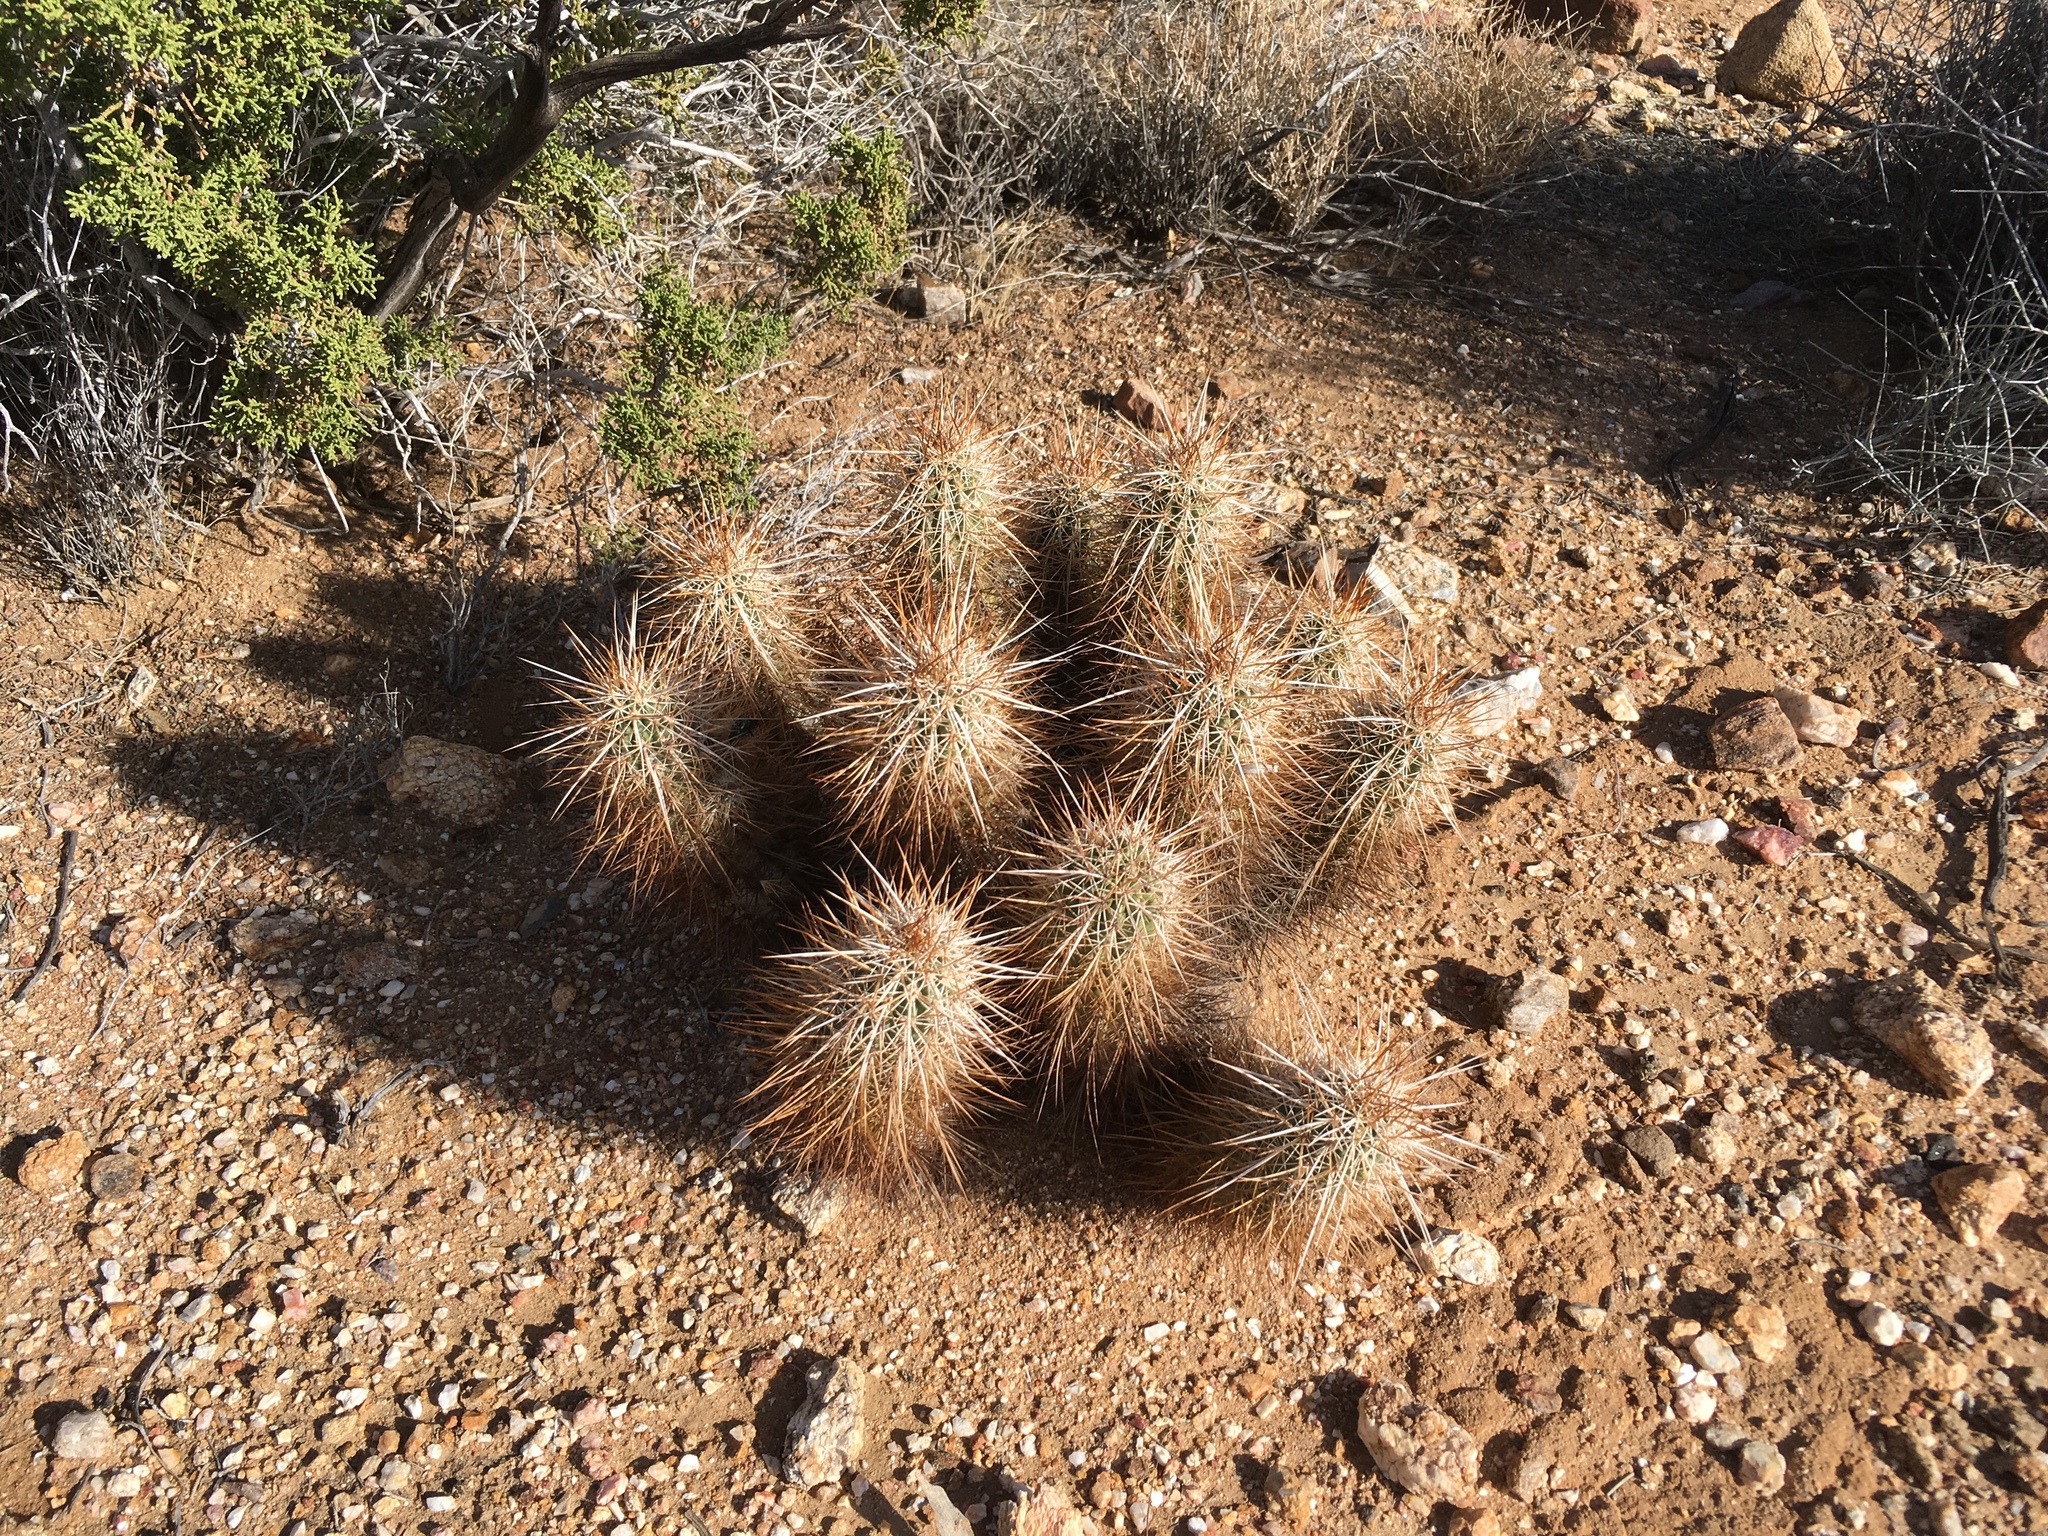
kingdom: Plantae
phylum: Tracheophyta
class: Magnoliopsida
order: Caryophyllales
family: Cactaceae
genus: Echinocereus
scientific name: Echinocereus engelmannii
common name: Engelmann's hedgehog cactus
